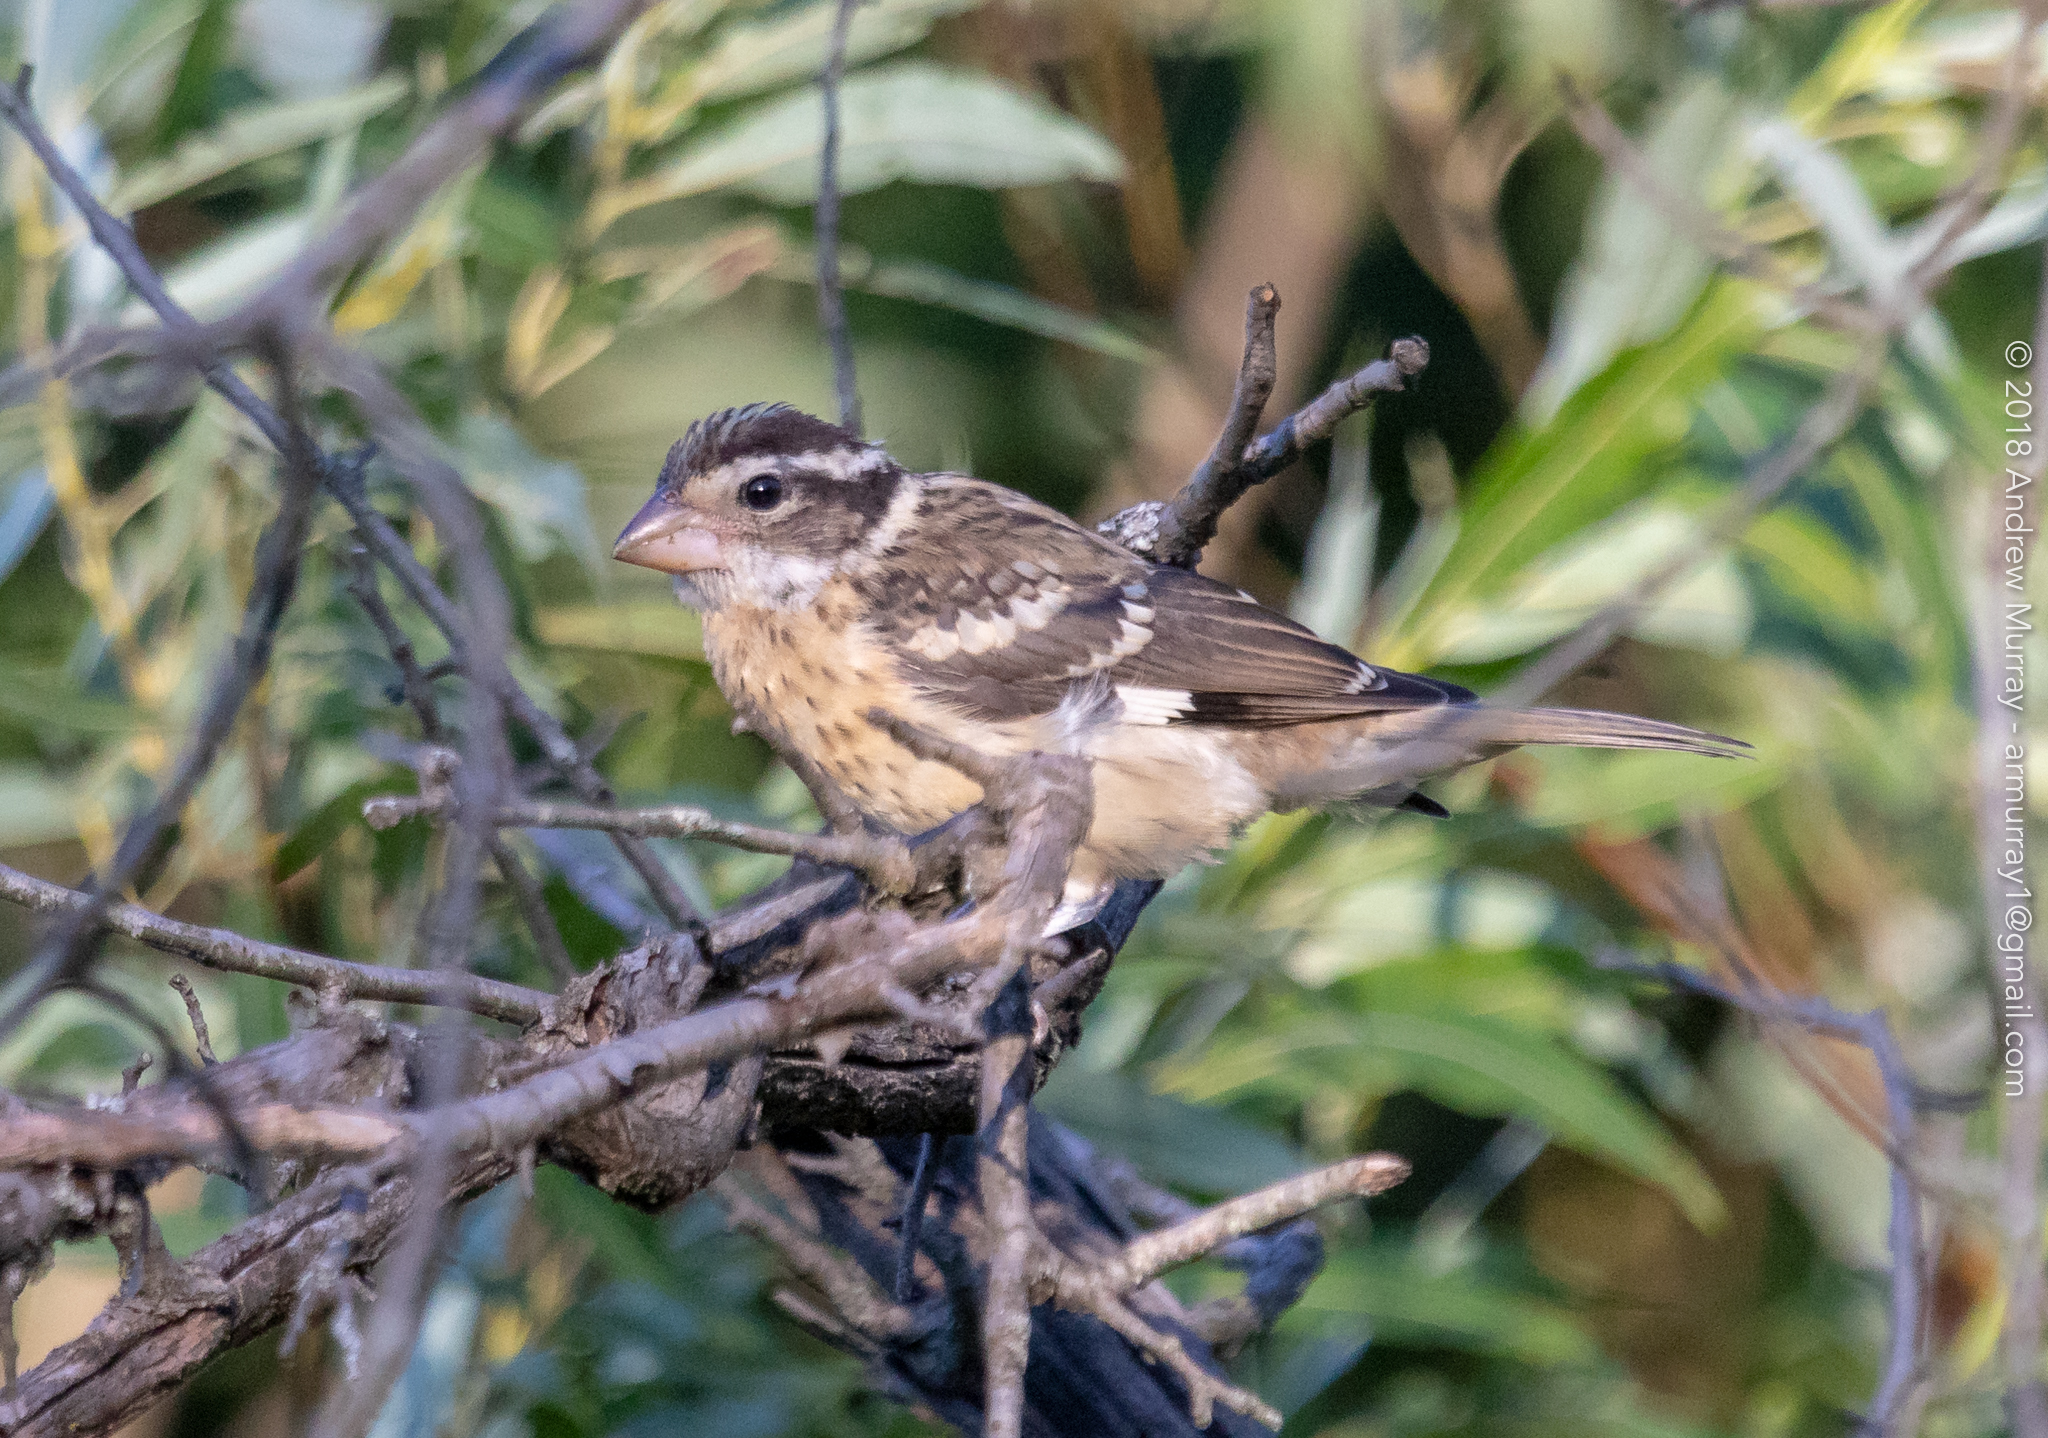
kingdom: Animalia
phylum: Chordata
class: Aves
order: Passeriformes
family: Cardinalidae
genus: Pheucticus
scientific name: Pheucticus ludovicianus
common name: Rose-breasted grosbeak
